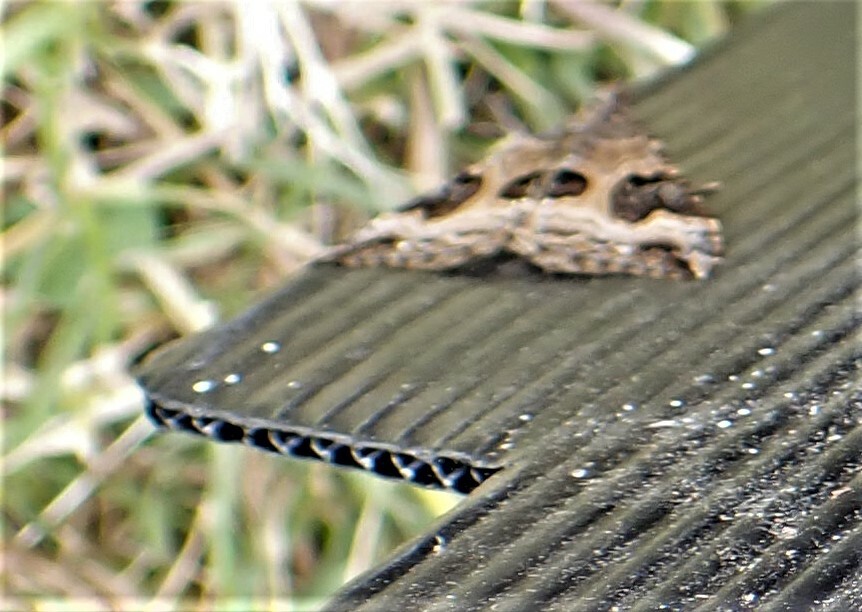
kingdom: Animalia
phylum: Arthropoda
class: Insecta
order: Lepidoptera
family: Geometridae
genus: Hydriomena
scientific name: Hydriomena deltoidata
